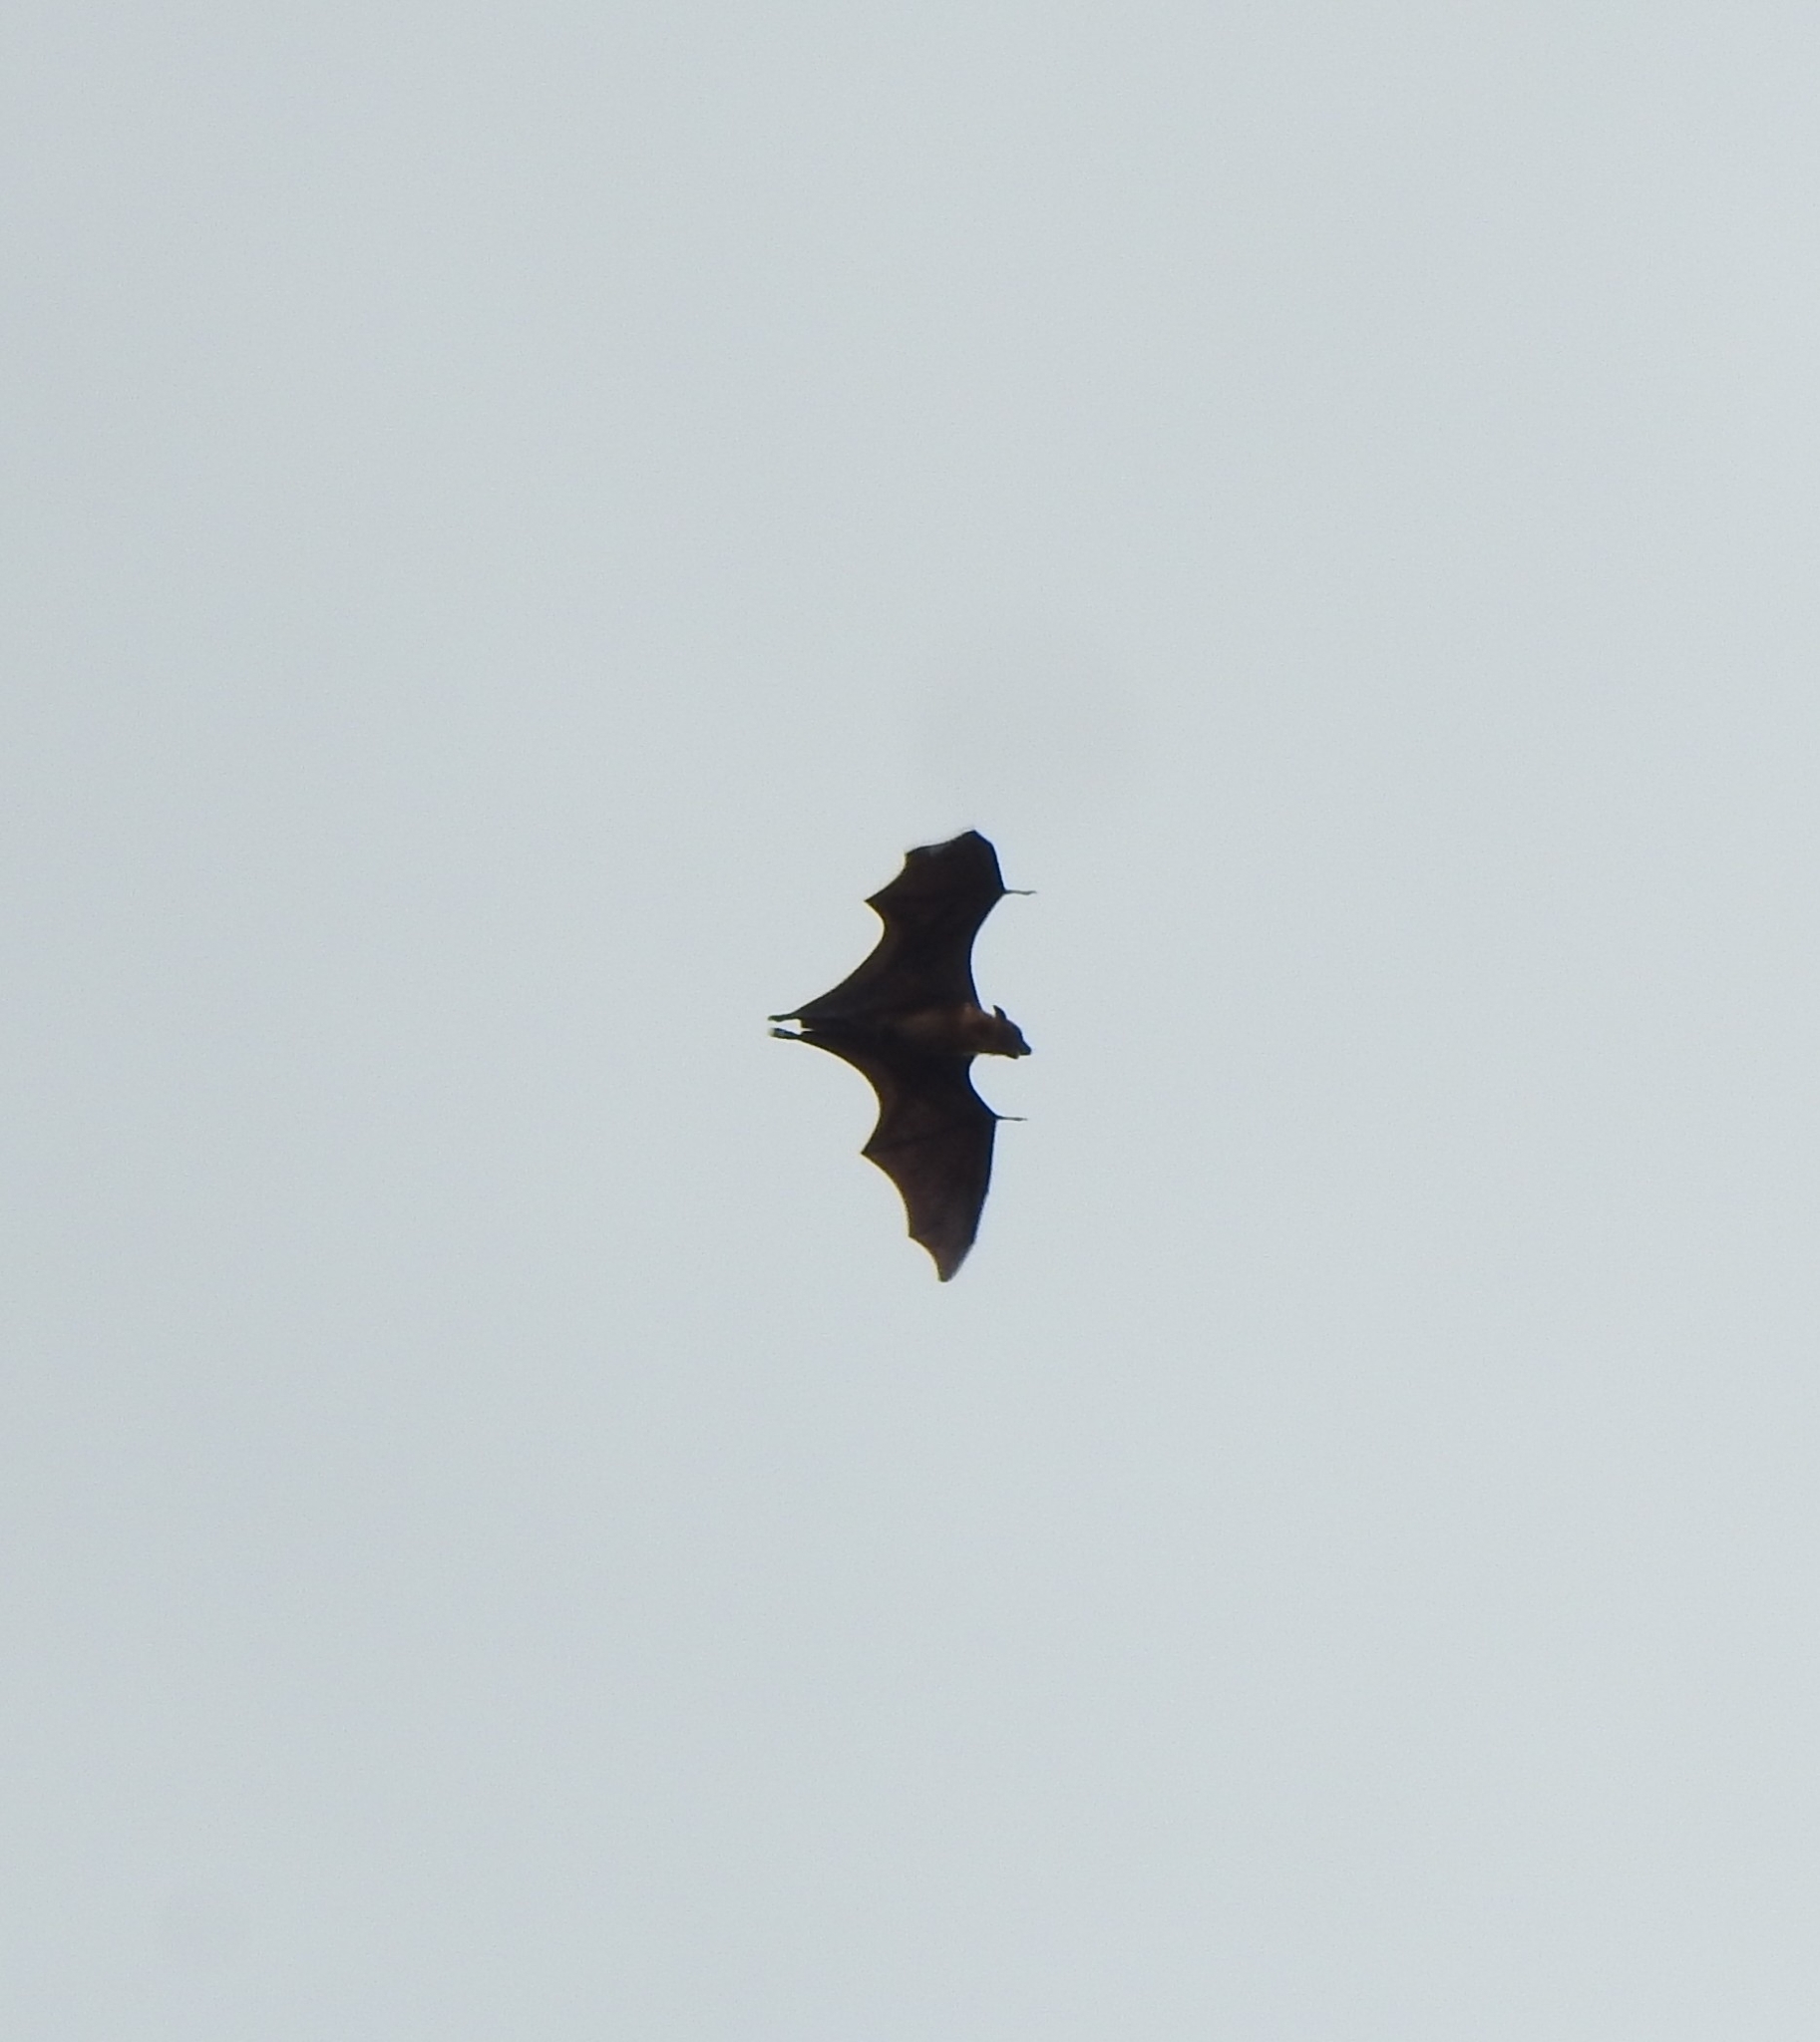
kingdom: Animalia
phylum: Chordata
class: Mammalia
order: Chiroptera
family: Pteropodidae
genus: Pteropus
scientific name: Pteropus vampyrus
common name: Large flying fox
